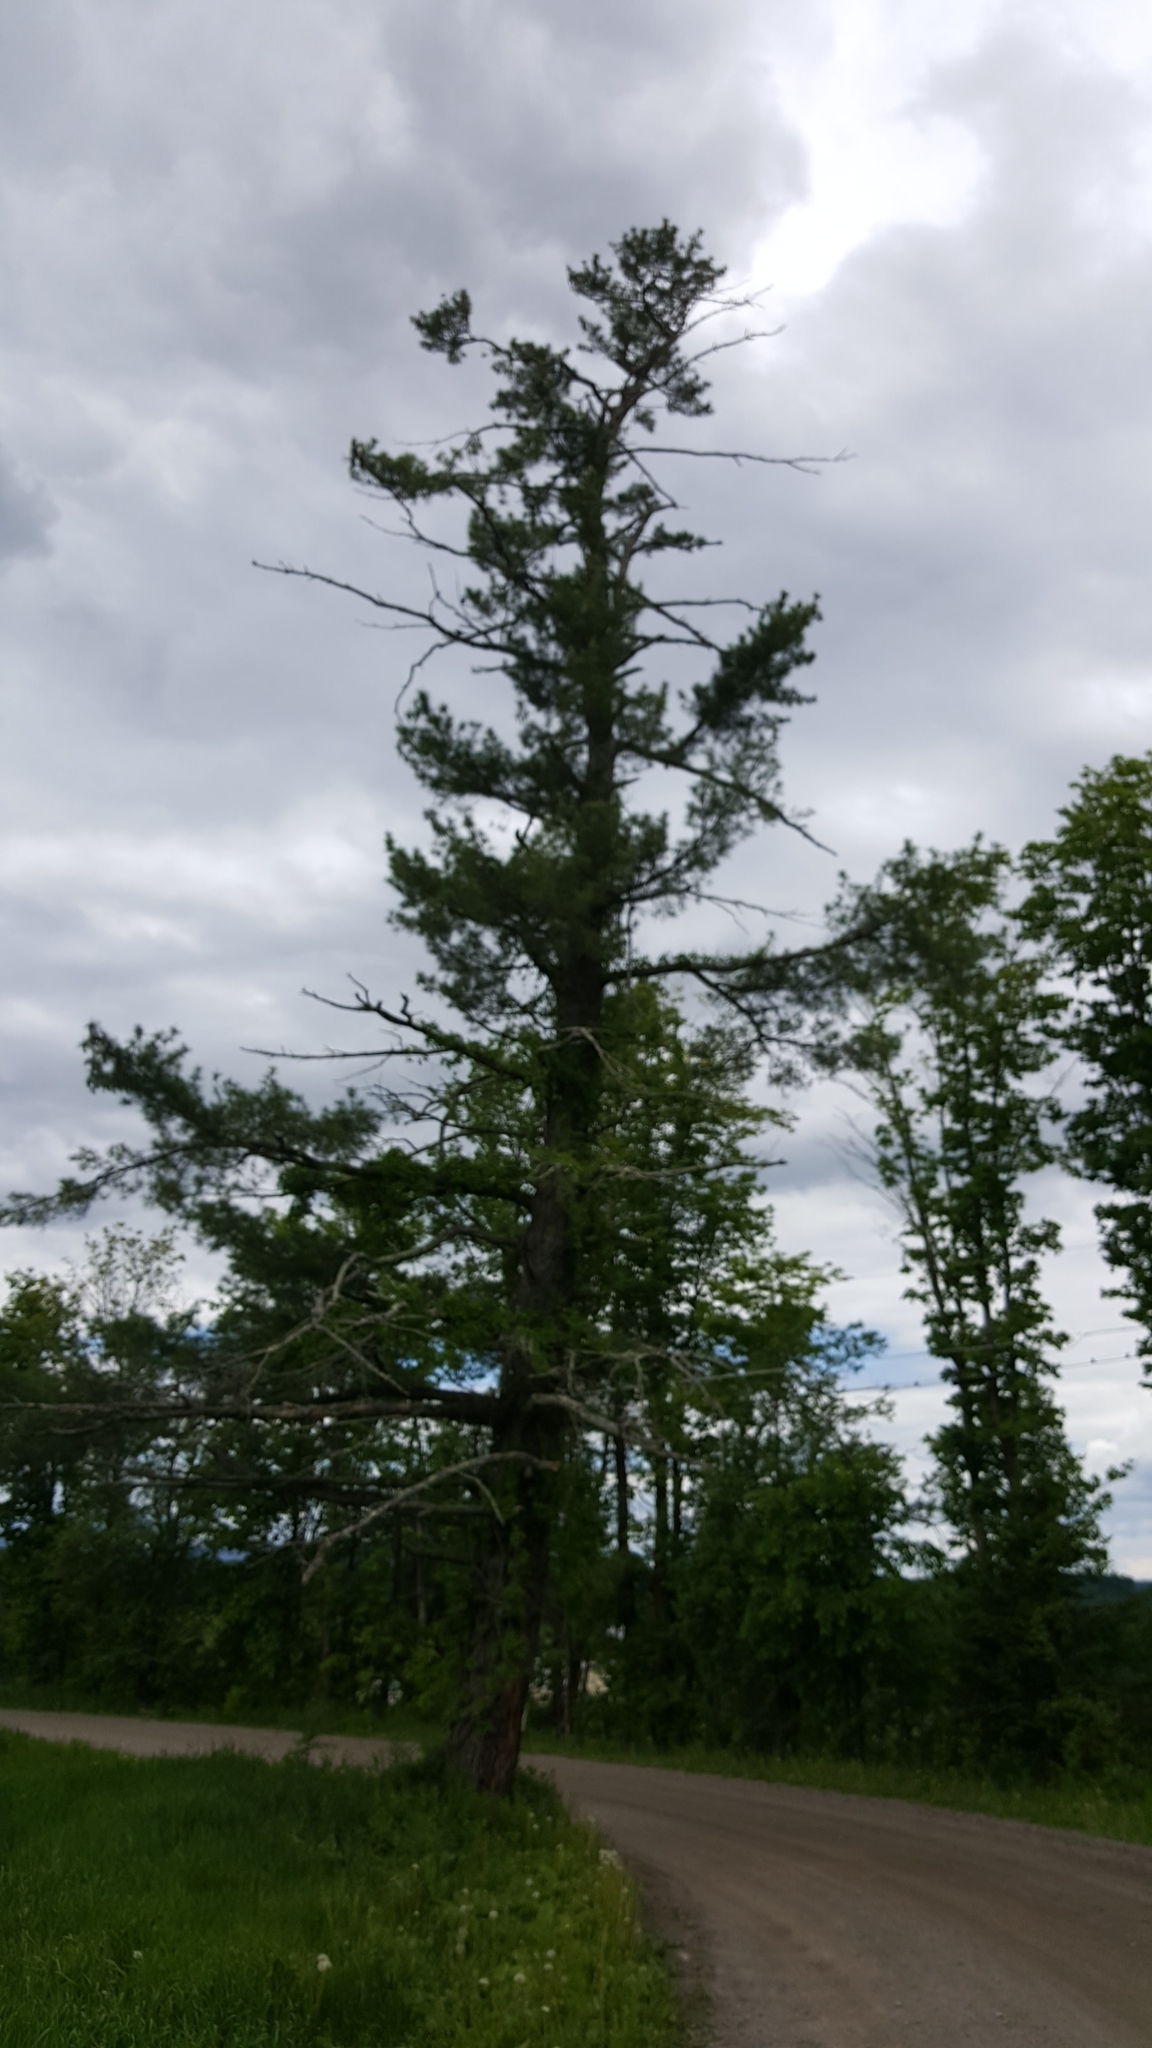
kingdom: Plantae
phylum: Tracheophyta
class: Pinopsida
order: Pinales
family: Pinaceae
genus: Pinus
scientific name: Pinus strobus
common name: Weymouth pine
